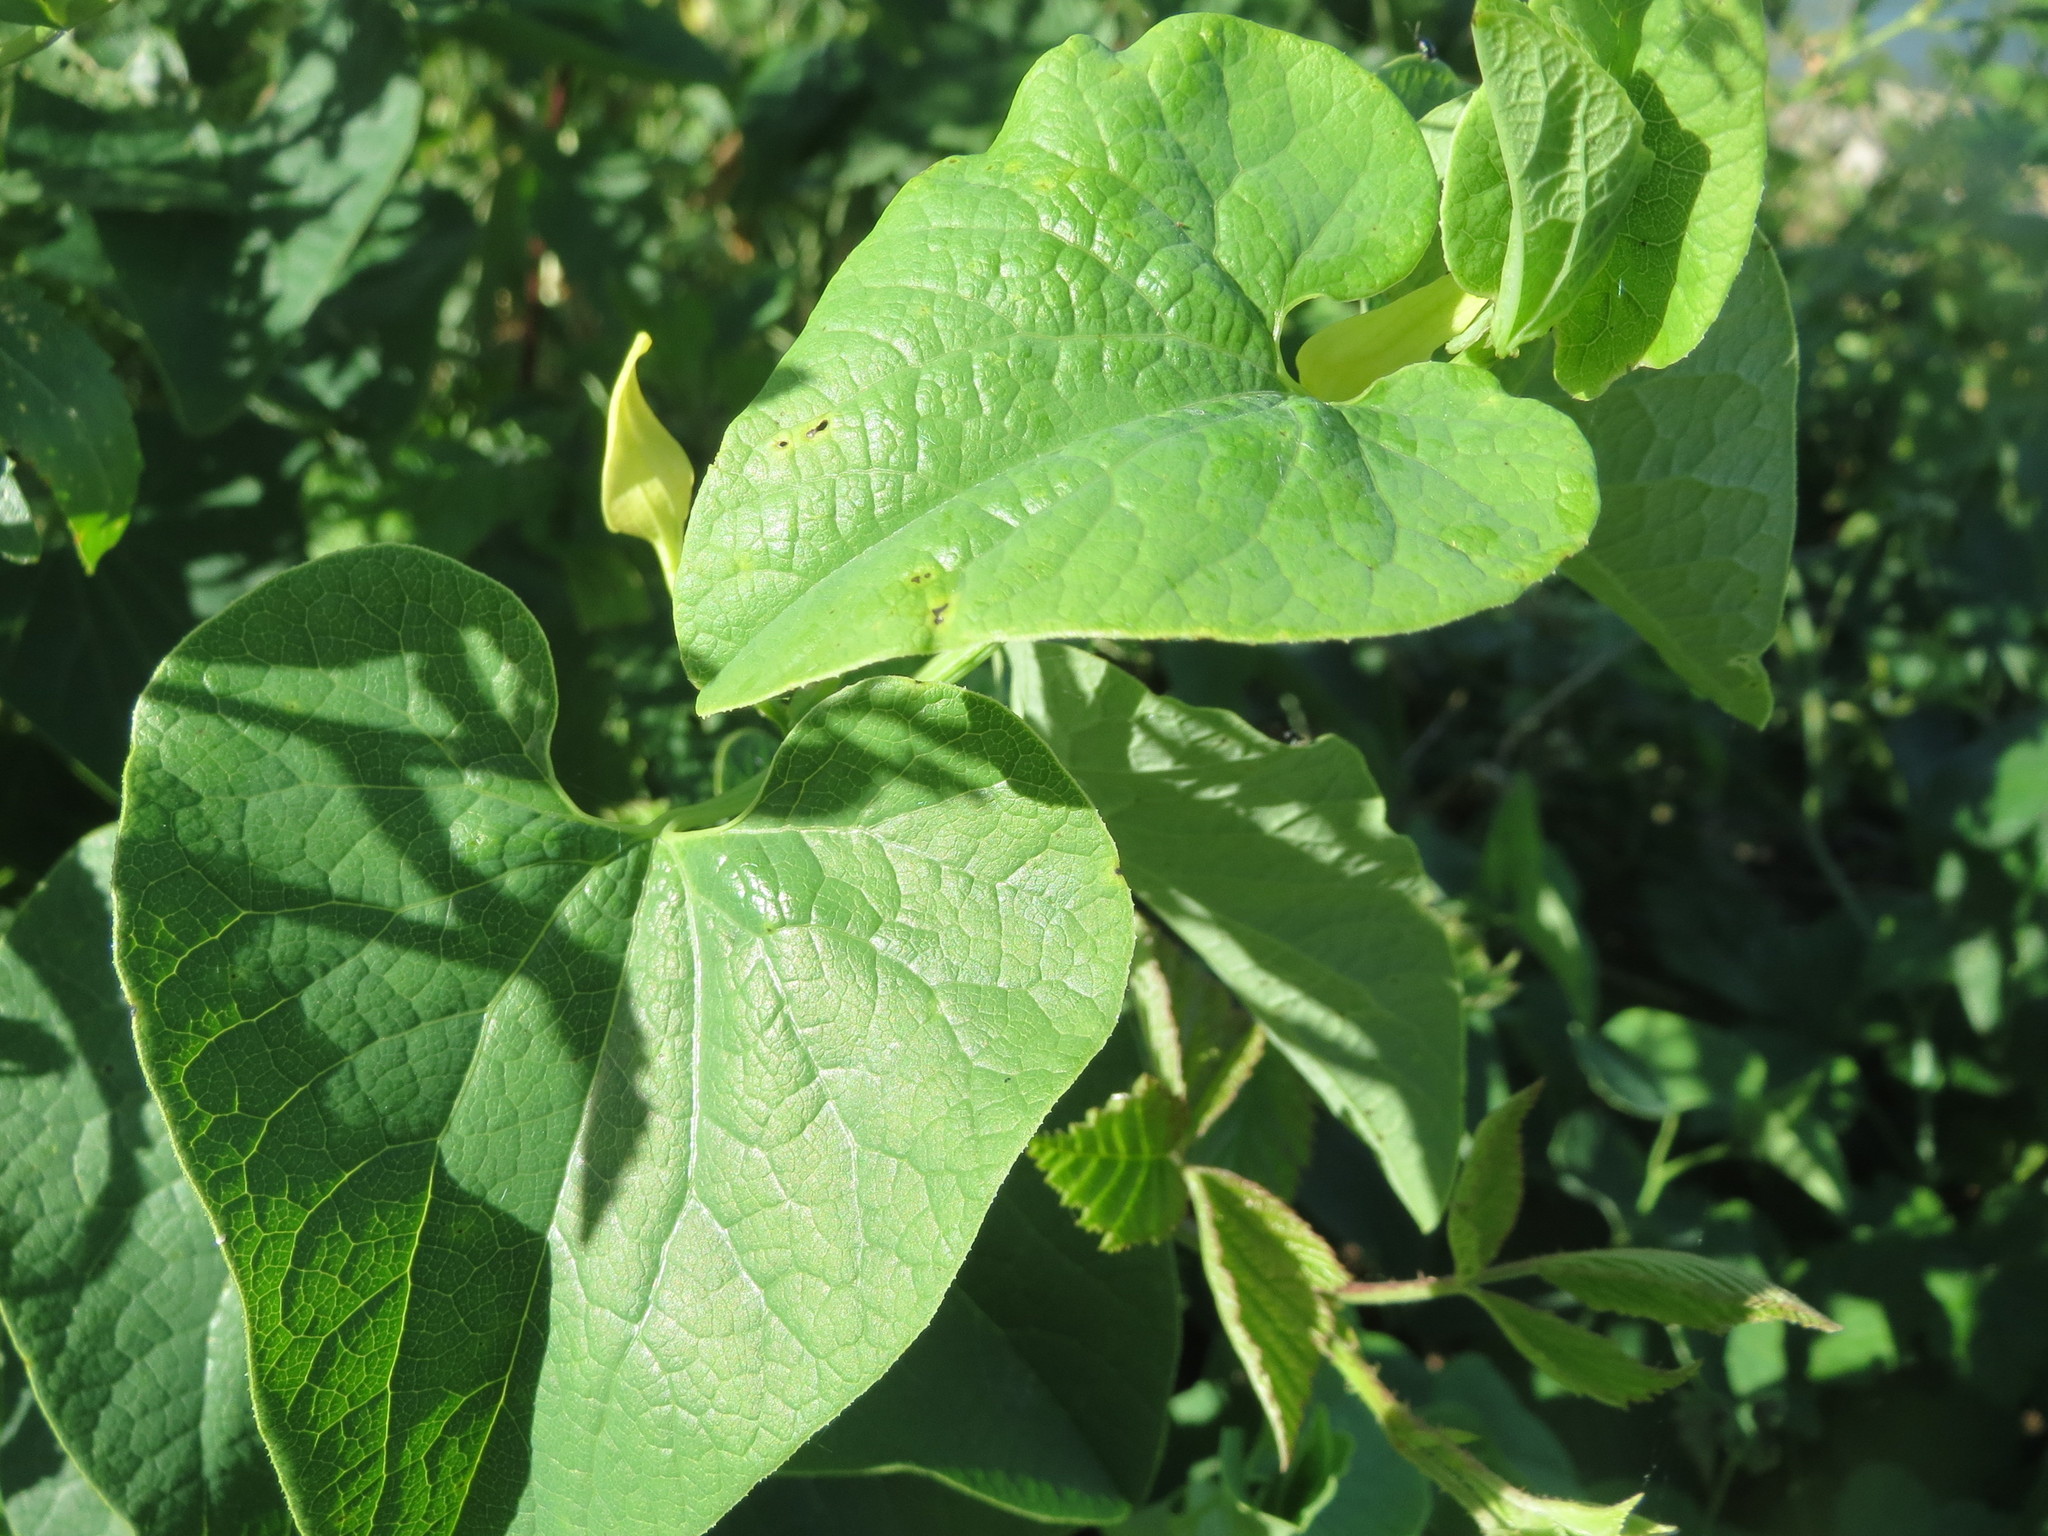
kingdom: Plantae
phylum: Tracheophyta
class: Magnoliopsida
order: Piperales
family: Aristolochiaceae
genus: Aristolochia
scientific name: Aristolochia clematitis
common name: Birthwort
